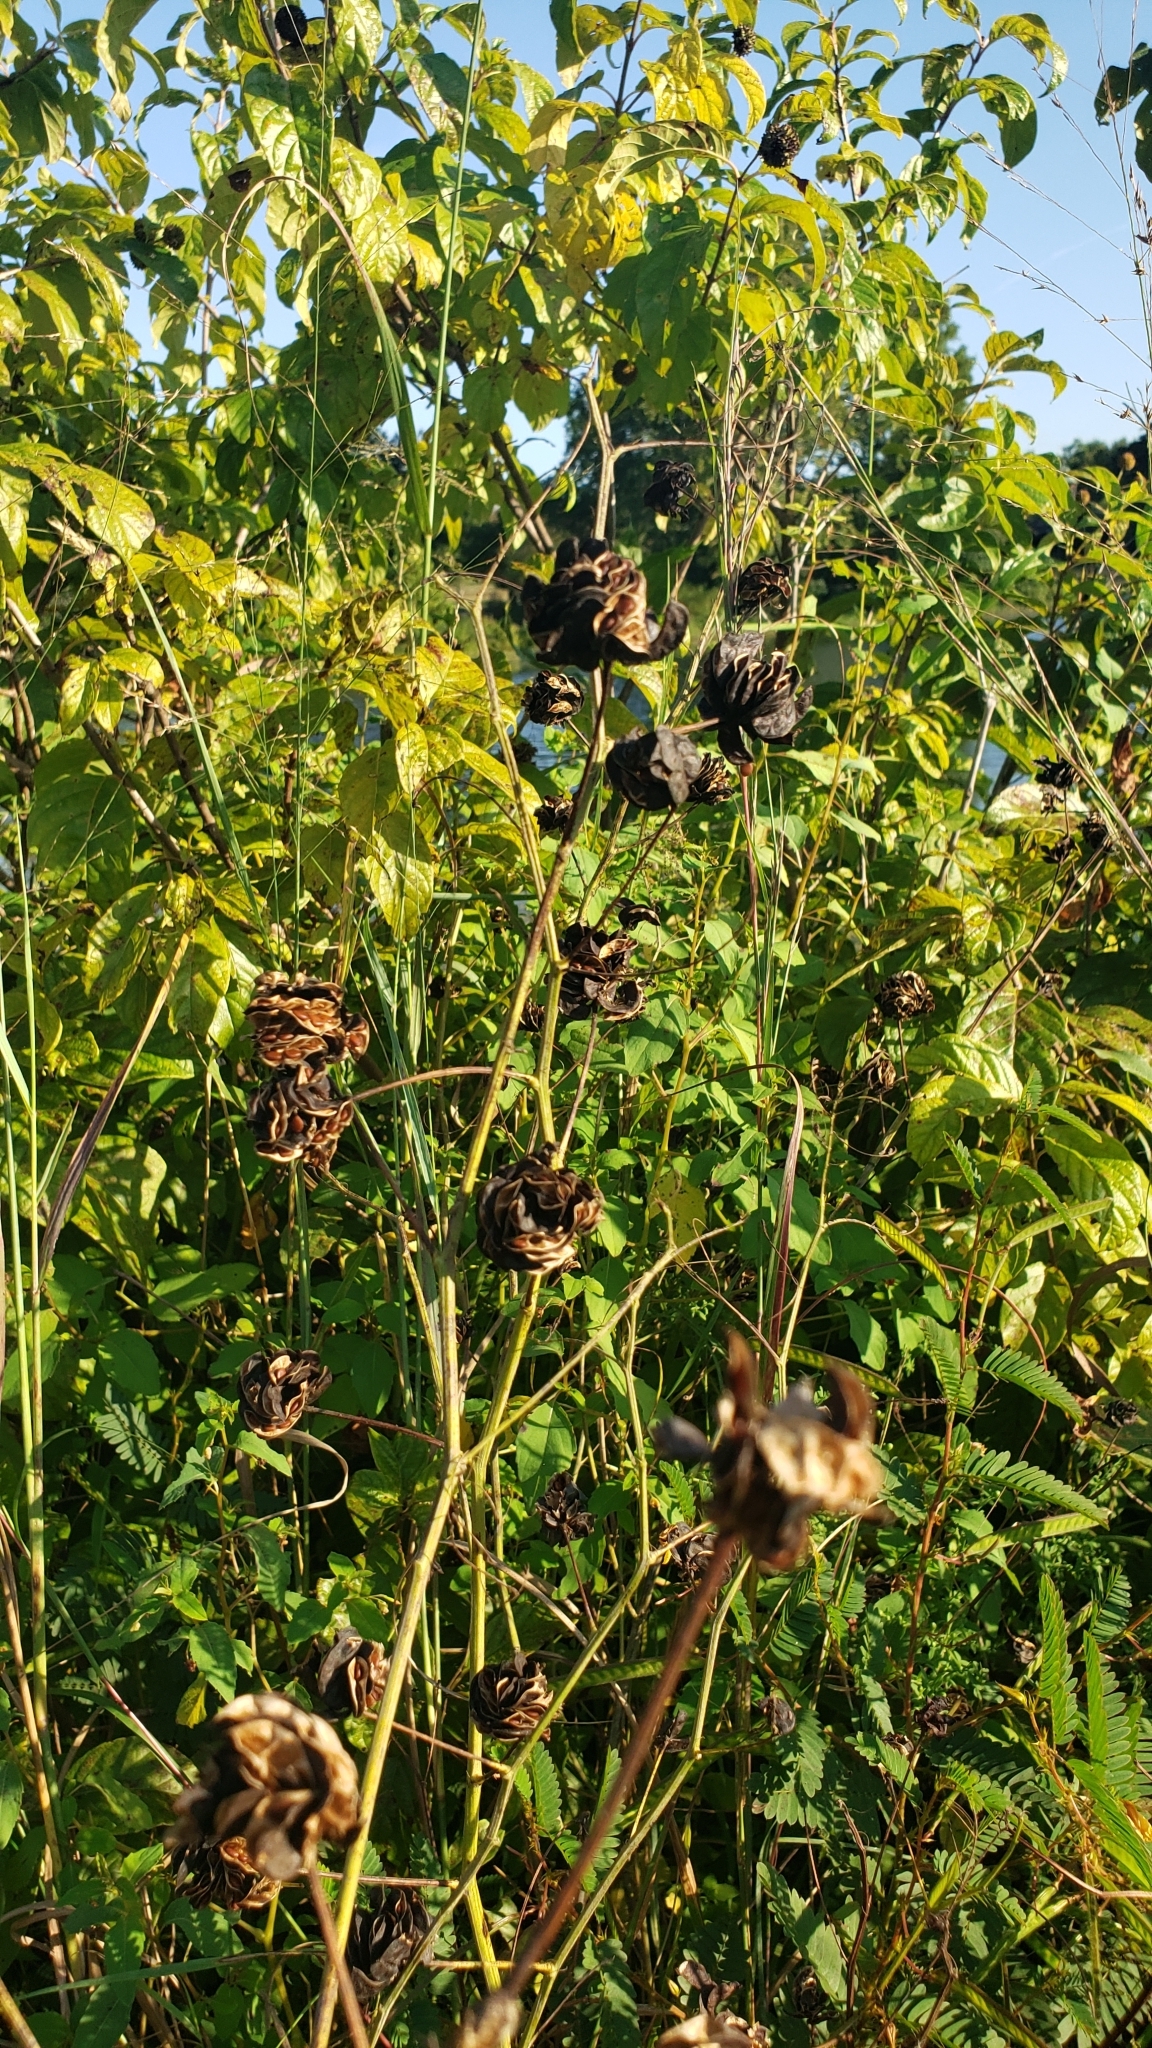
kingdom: Plantae
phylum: Tracheophyta
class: Magnoliopsida
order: Fabales
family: Fabaceae
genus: Desmanthus
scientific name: Desmanthus illinoensis
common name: Illinois bundle-flower
